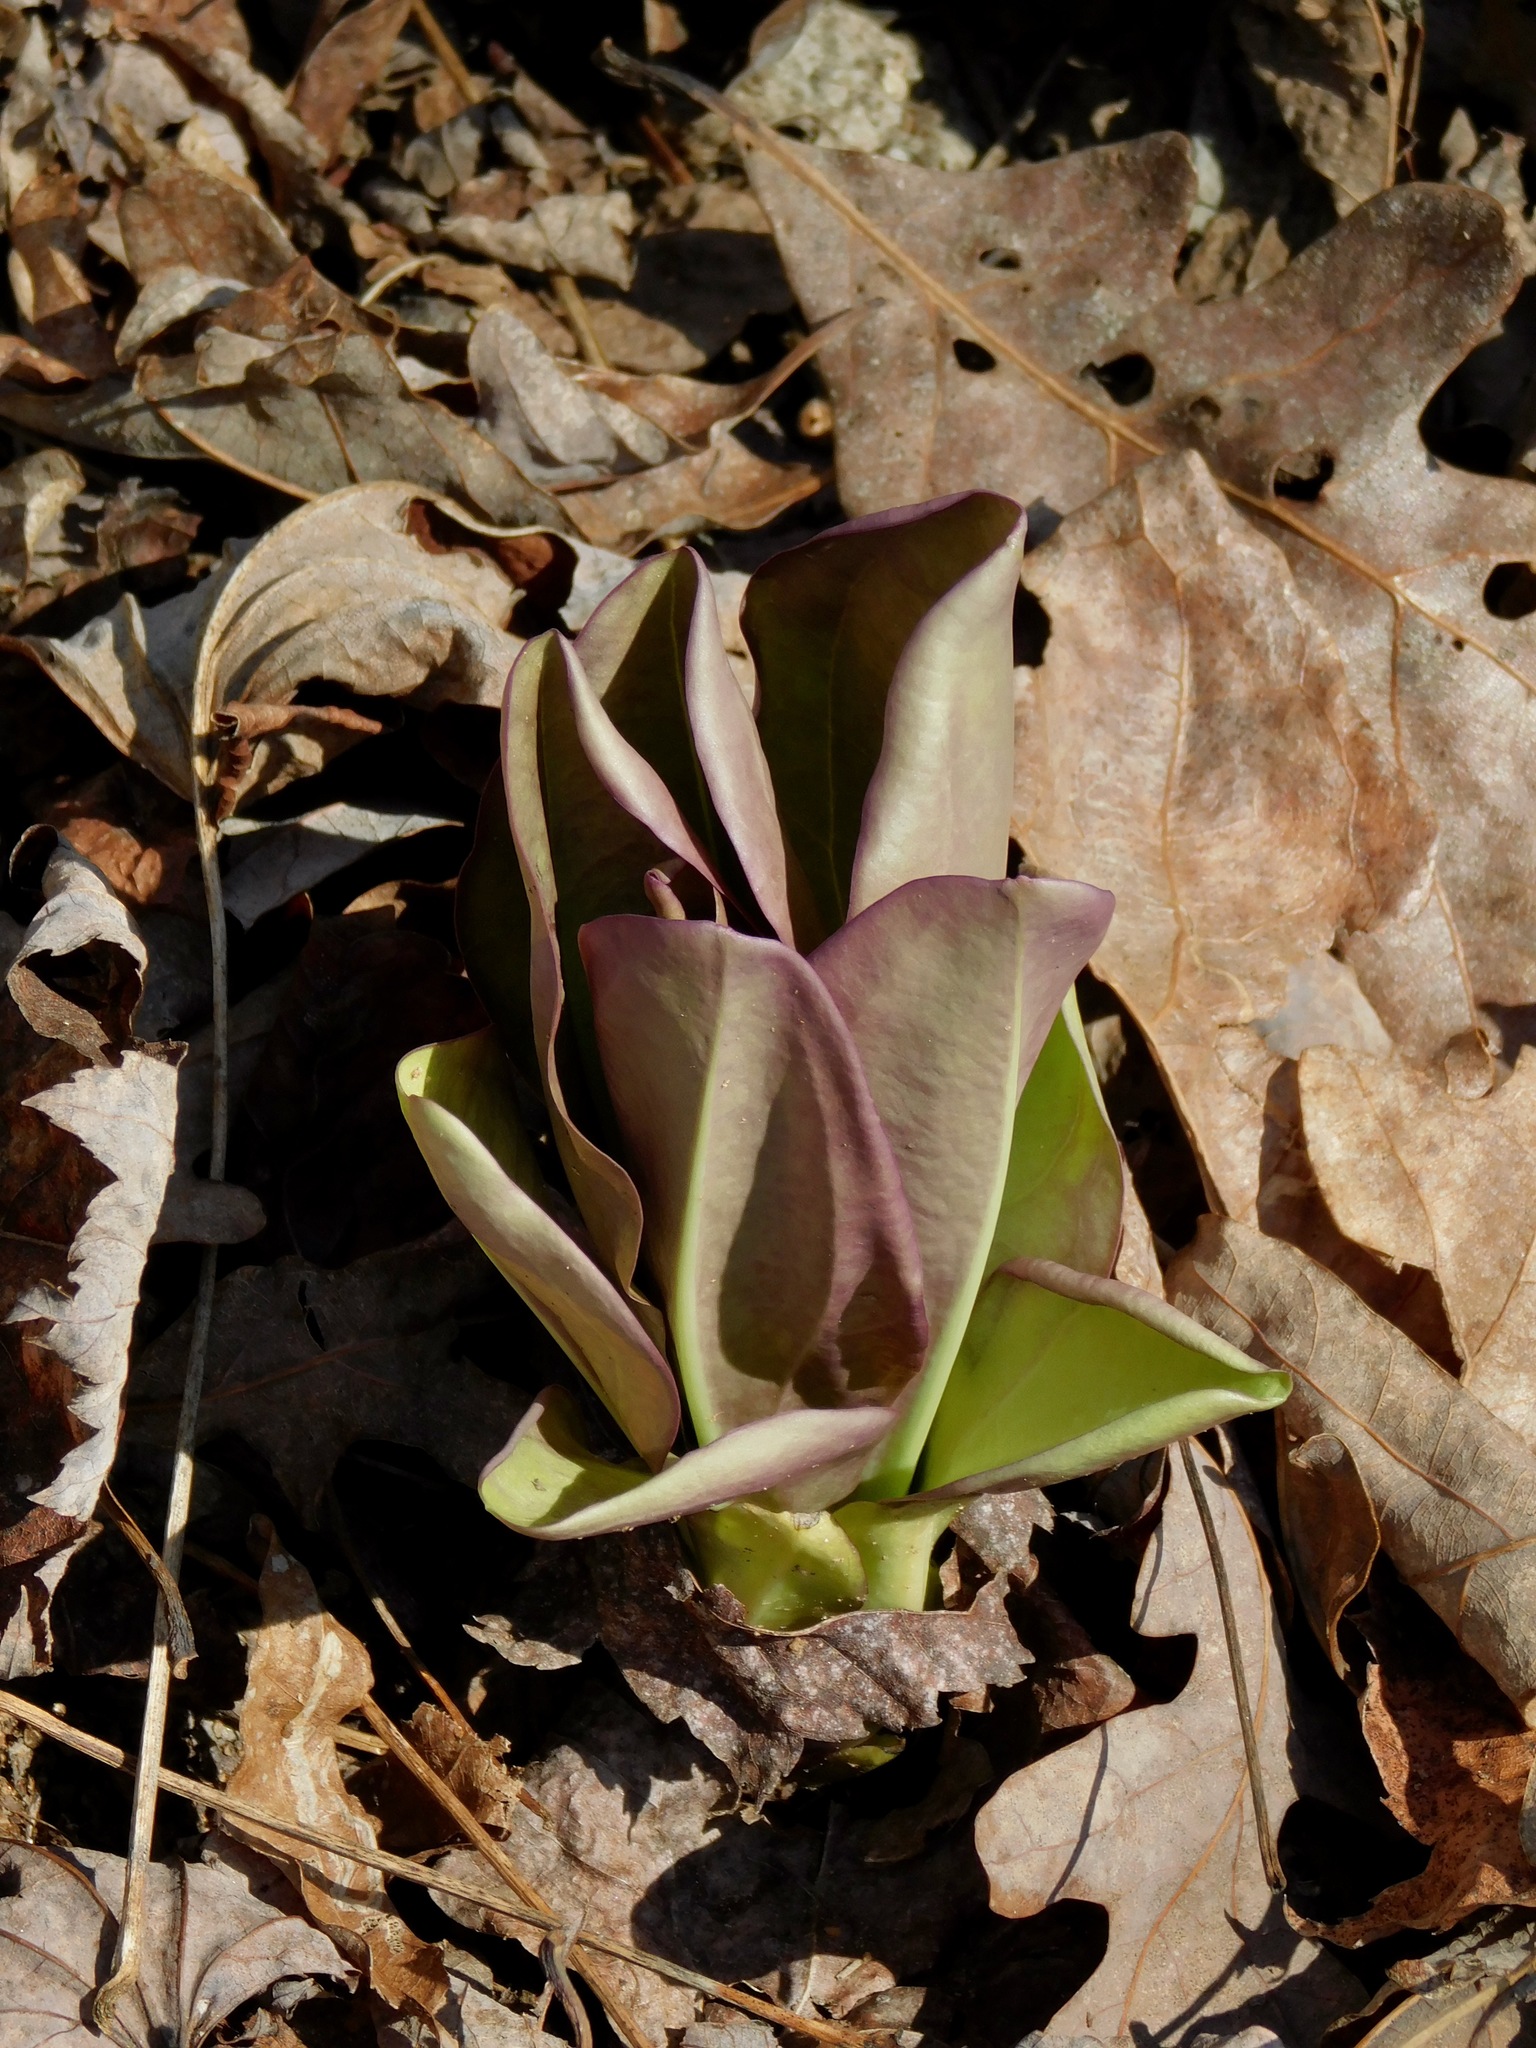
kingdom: Plantae
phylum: Tracheophyta
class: Magnoliopsida
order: Gentianales
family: Gentianaceae
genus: Frasera
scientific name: Frasera caroliniensis
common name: American columbo
